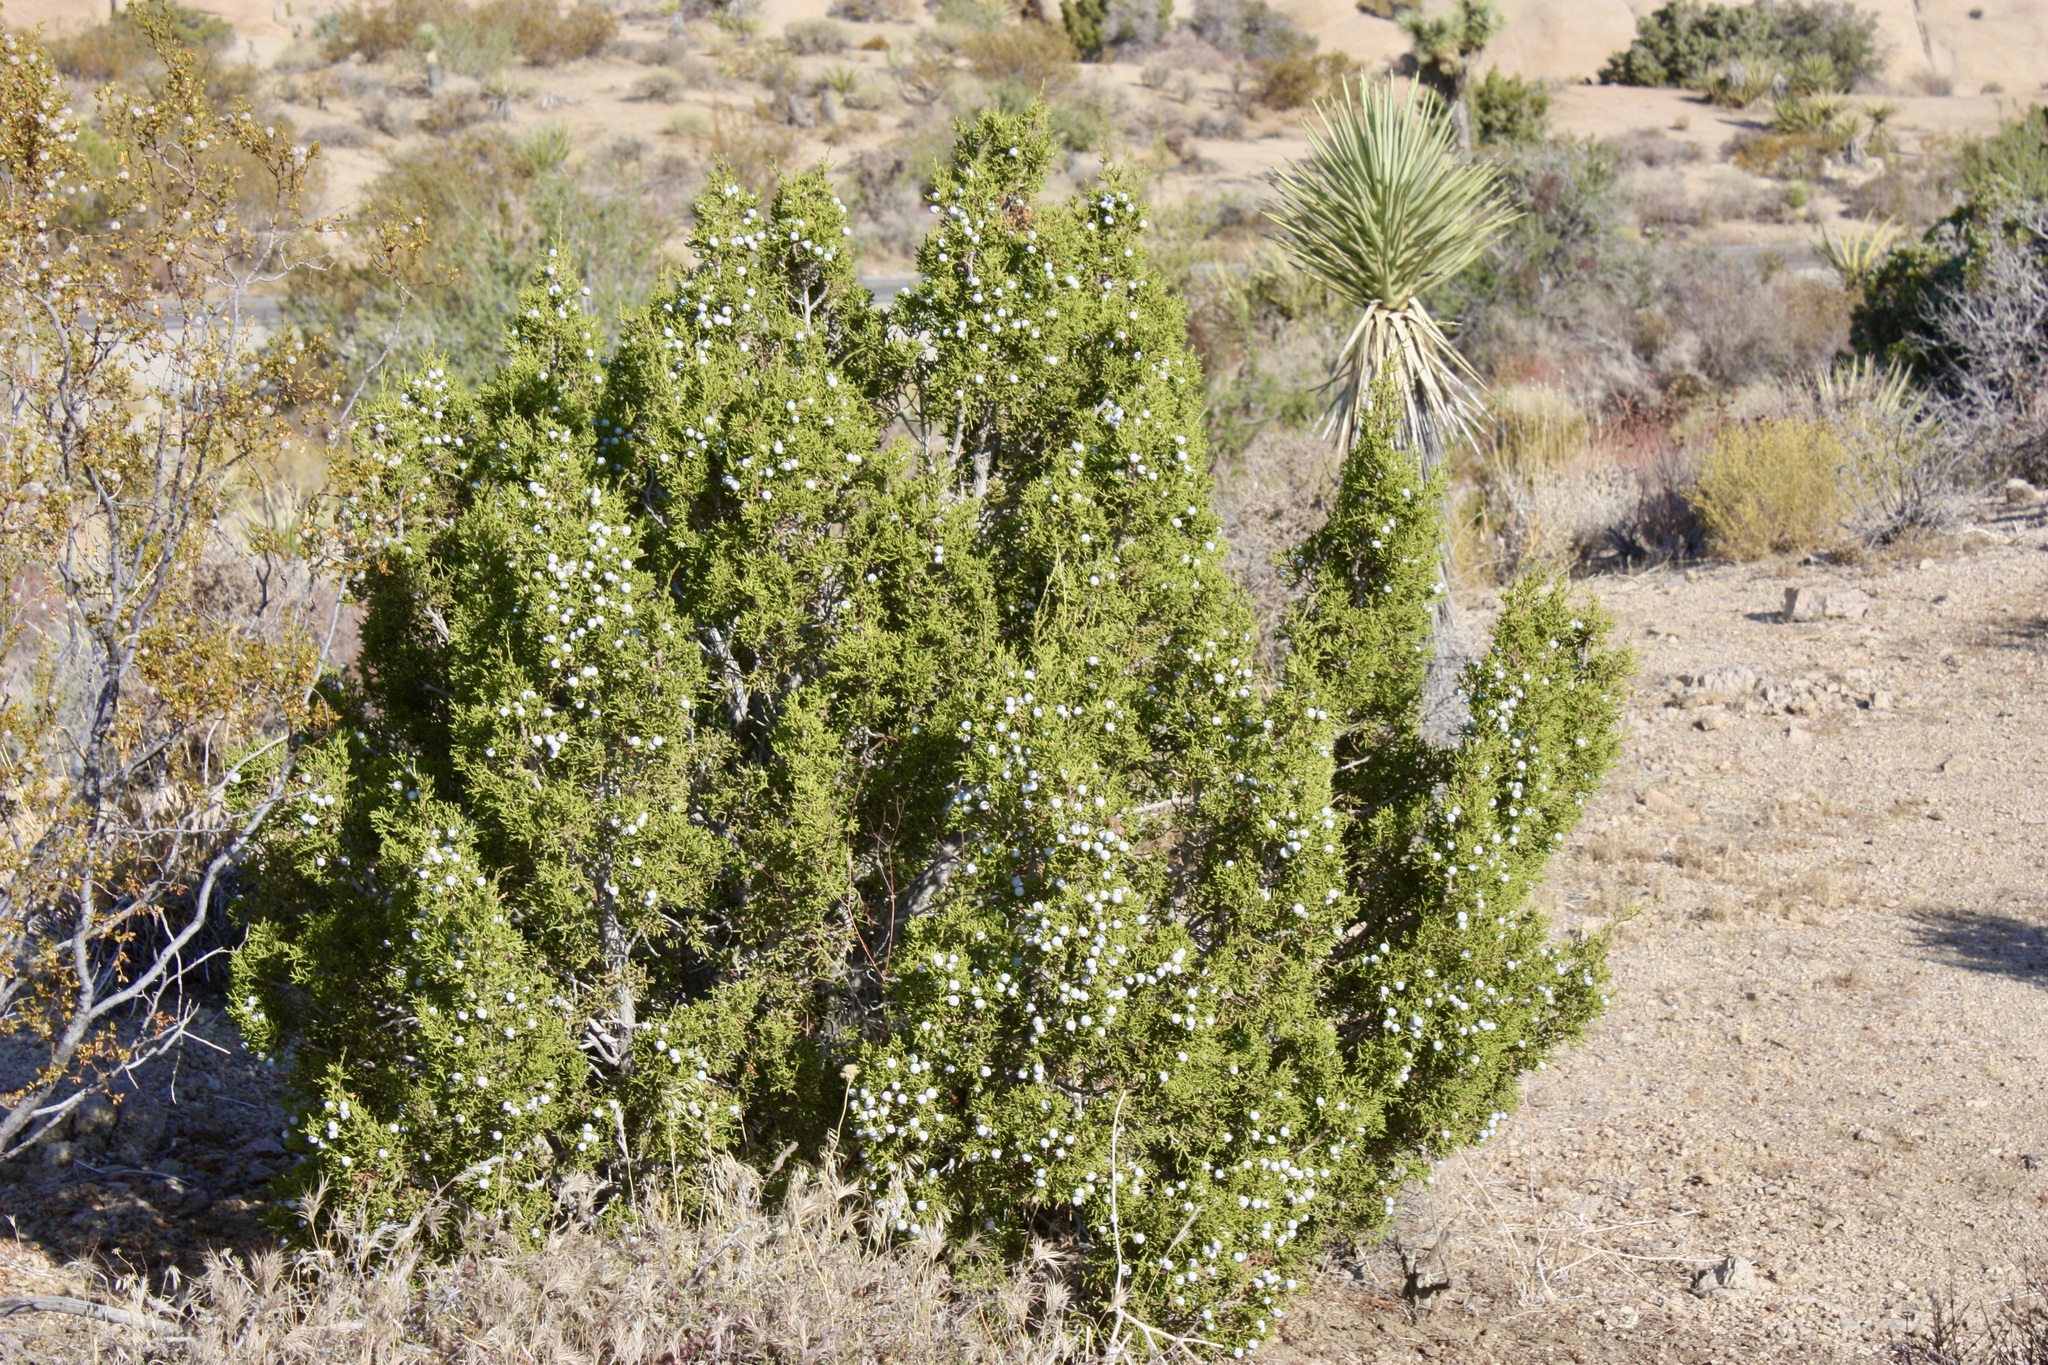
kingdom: Plantae
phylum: Tracheophyta
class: Pinopsida
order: Pinales
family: Cupressaceae
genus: Juniperus
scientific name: Juniperus californica
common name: California juniper
